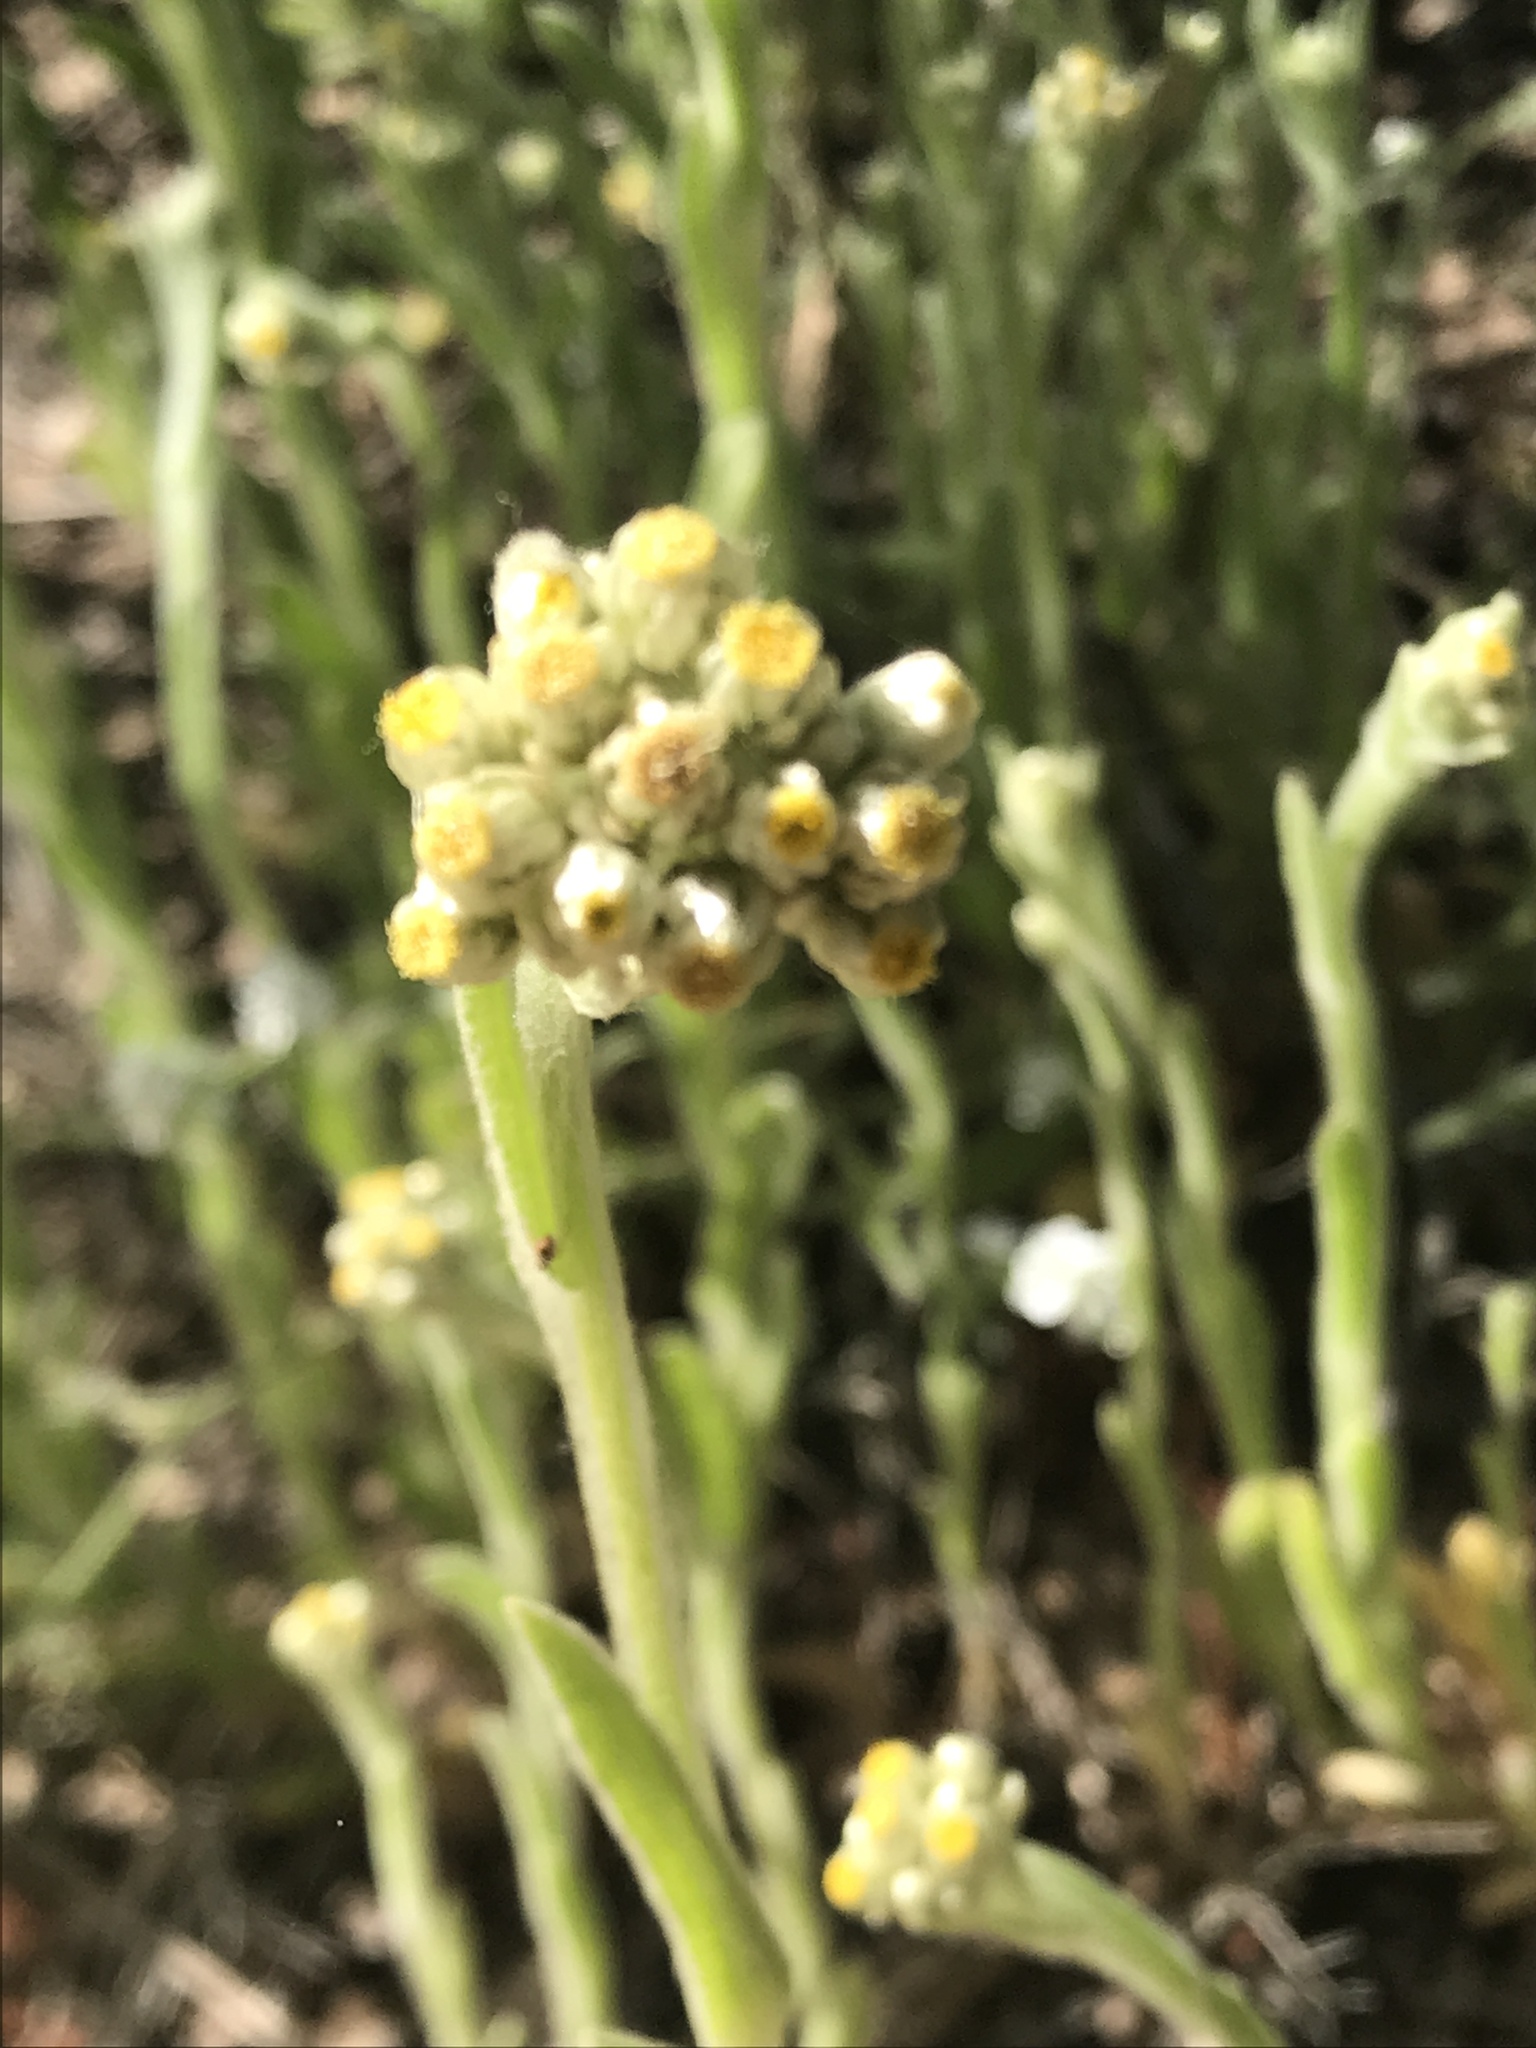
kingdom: Plantae
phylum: Tracheophyta
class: Magnoliopsida
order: Asterales
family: Asteraceae
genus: Pseudognaphalium
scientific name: Pseudognaphalium stramineum
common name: Cotton-batting-plant
